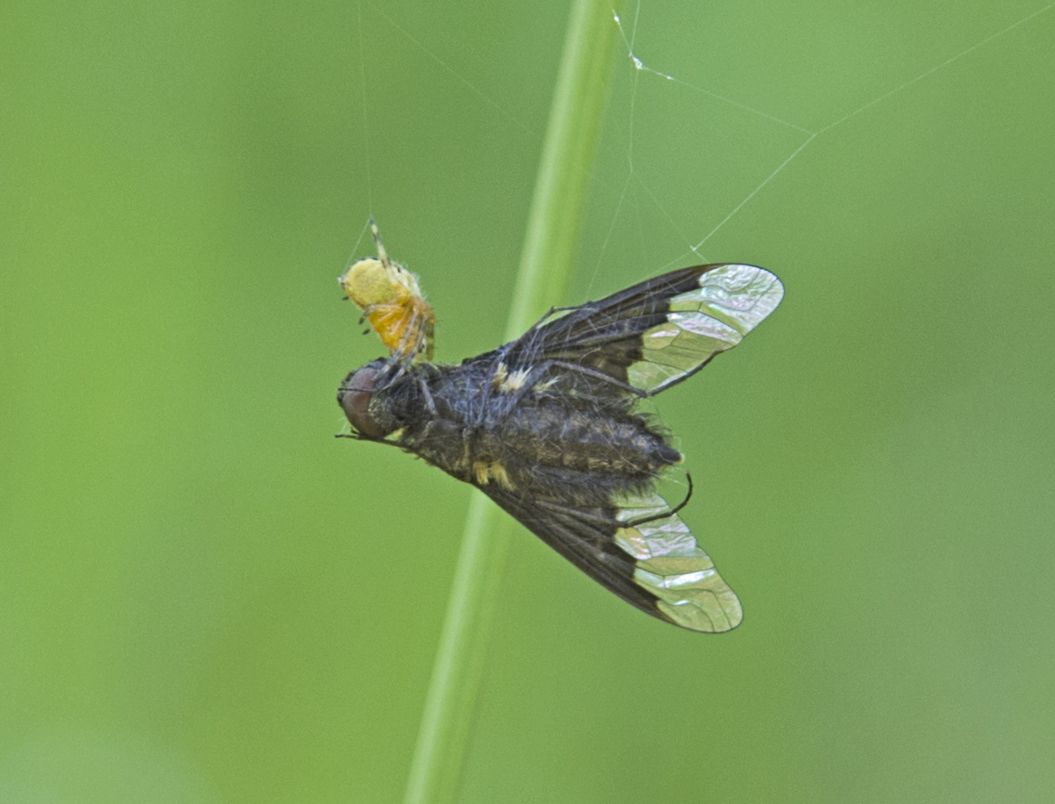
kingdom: Animalia
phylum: Arthropoda
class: Insecta
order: Diptera
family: Bombyliidae
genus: Hemipenthes
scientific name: Hemipenthes morio
